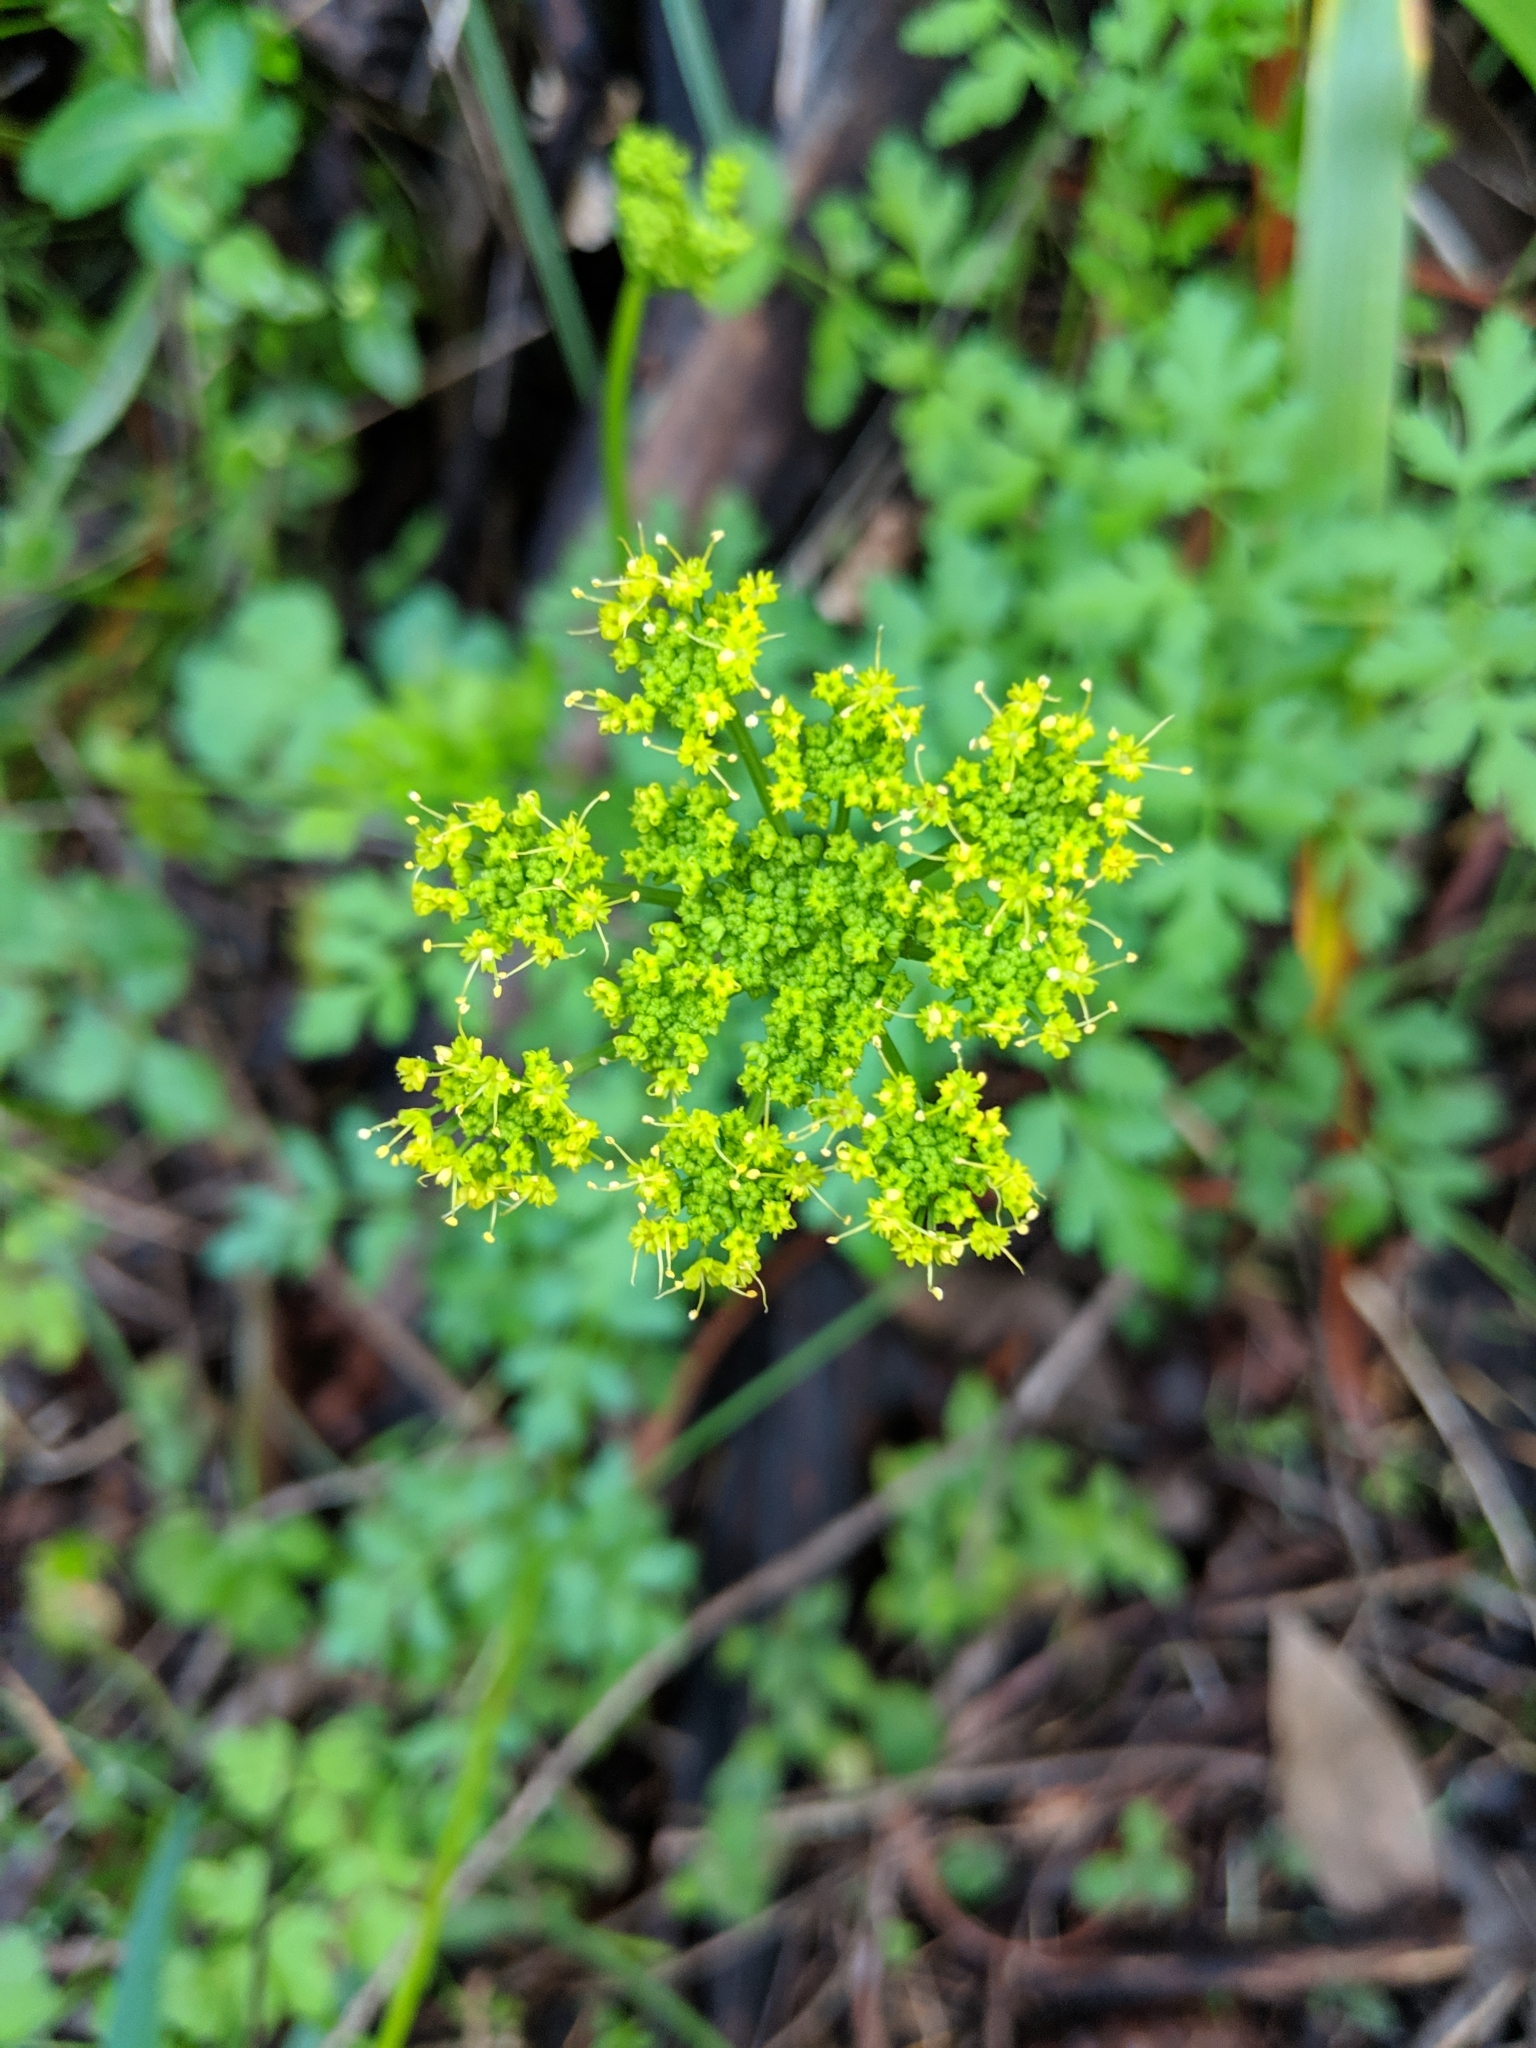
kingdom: Plantae
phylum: Tracheophyta
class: Magnoliopsida
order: Apiales
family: Apiaceae
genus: Tauschia
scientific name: Tauschia kelloggii
